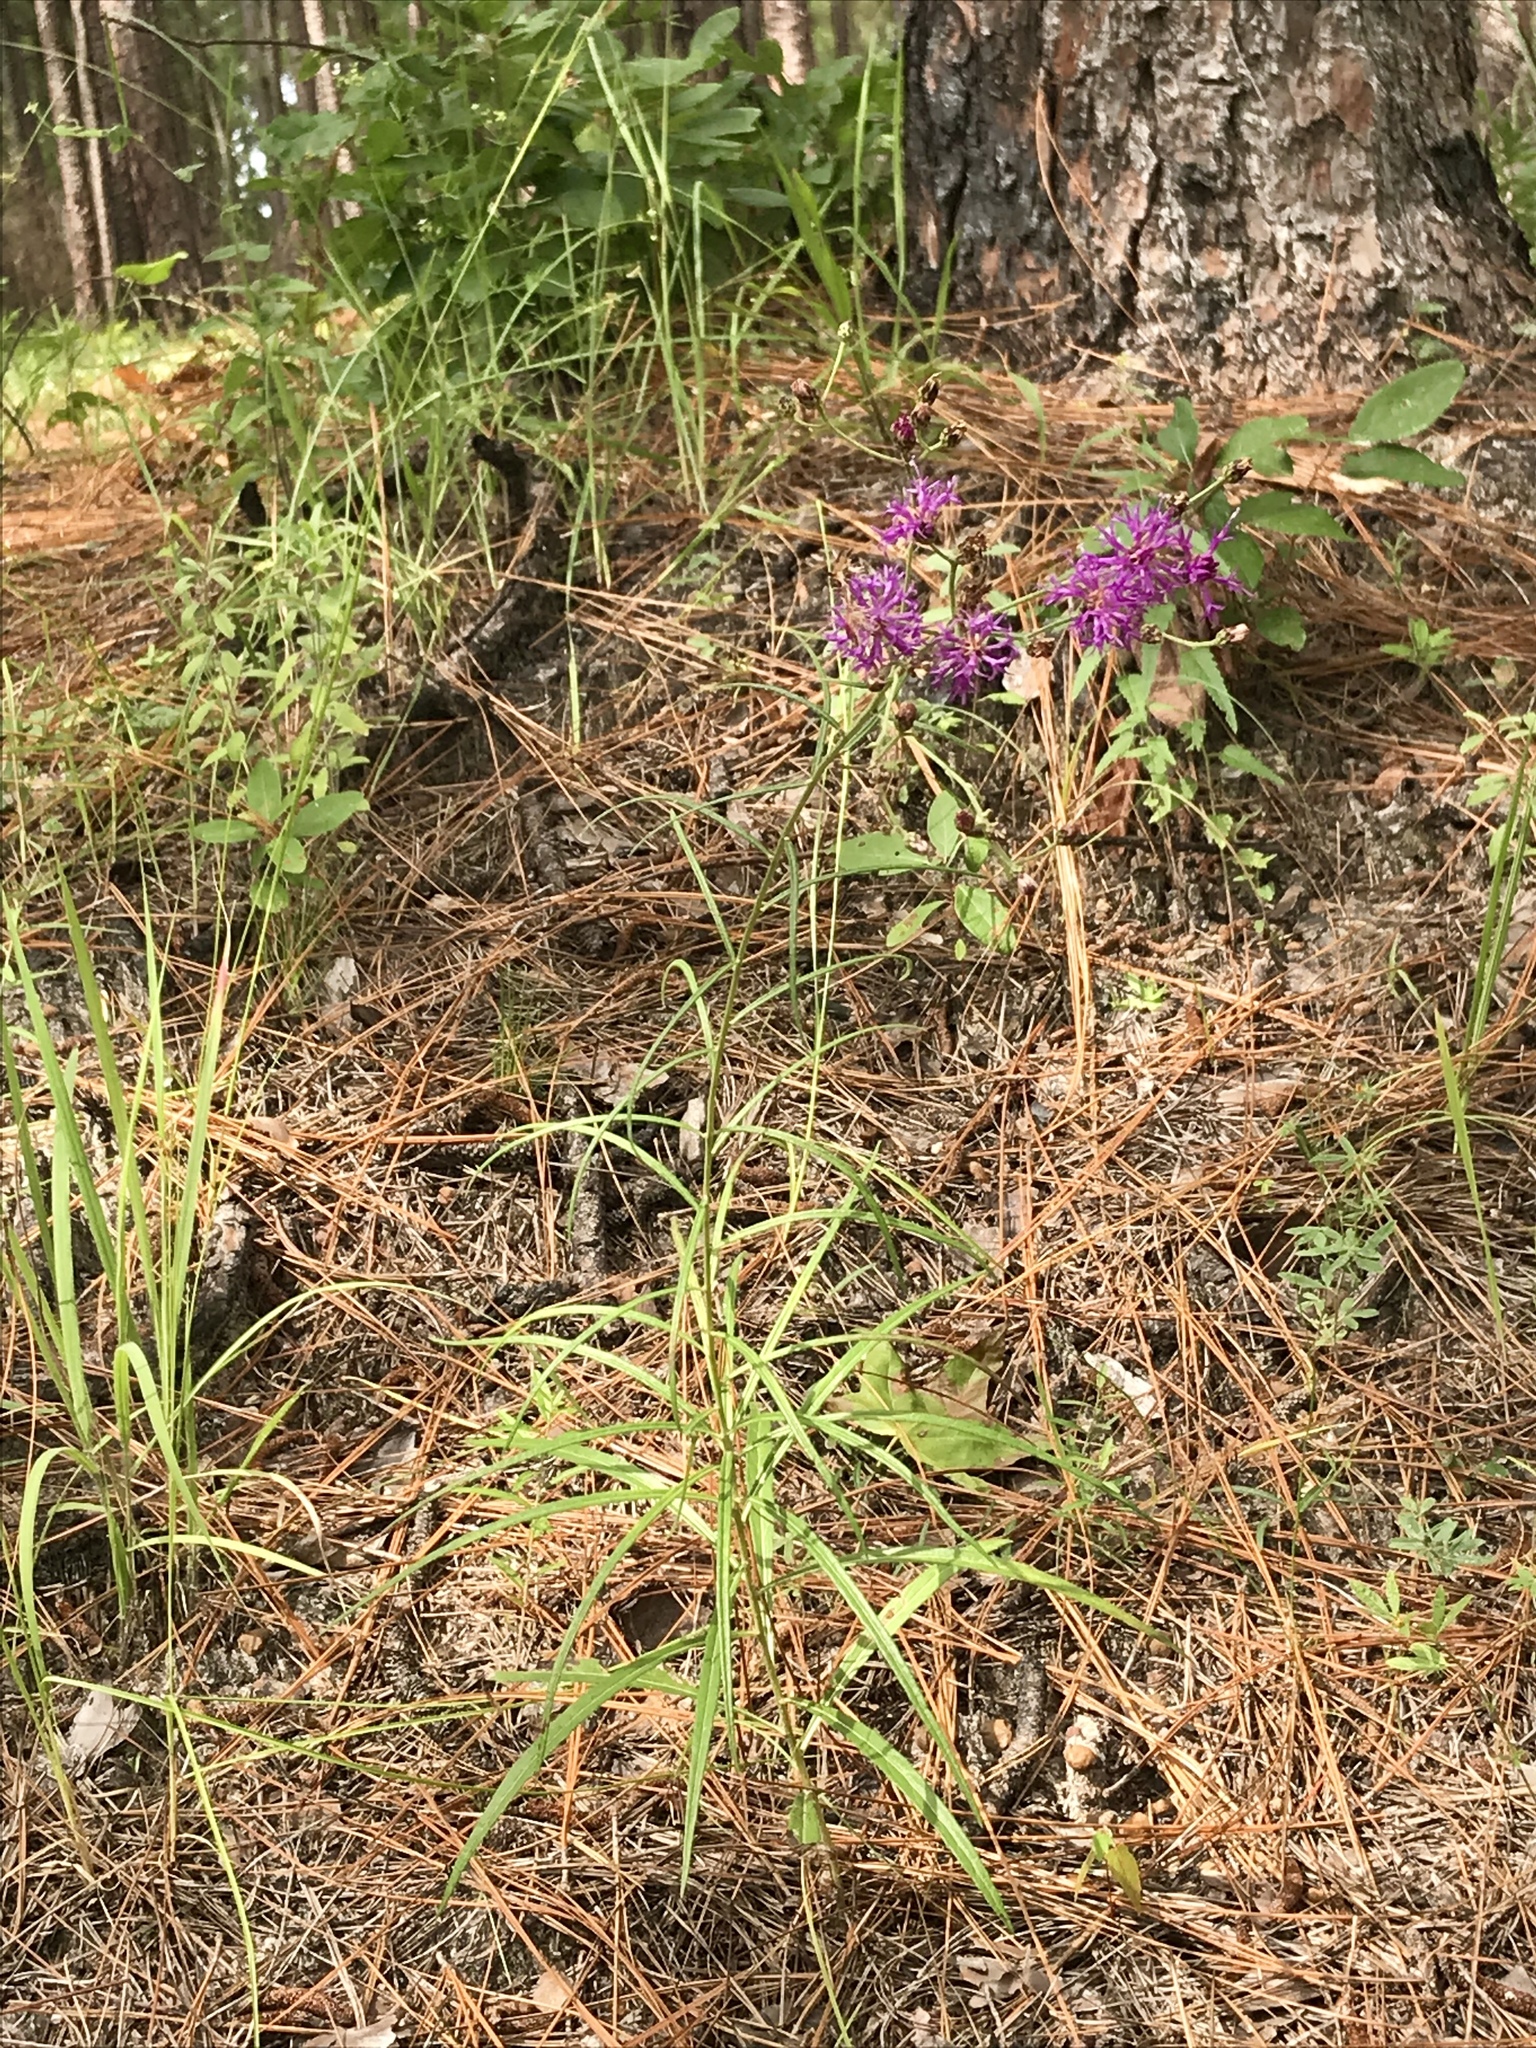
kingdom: Plantae
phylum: Tracheophyta
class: Magnoliopsida
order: Asterales
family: Asteraceae
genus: Vernonia
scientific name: Vernonia texana
